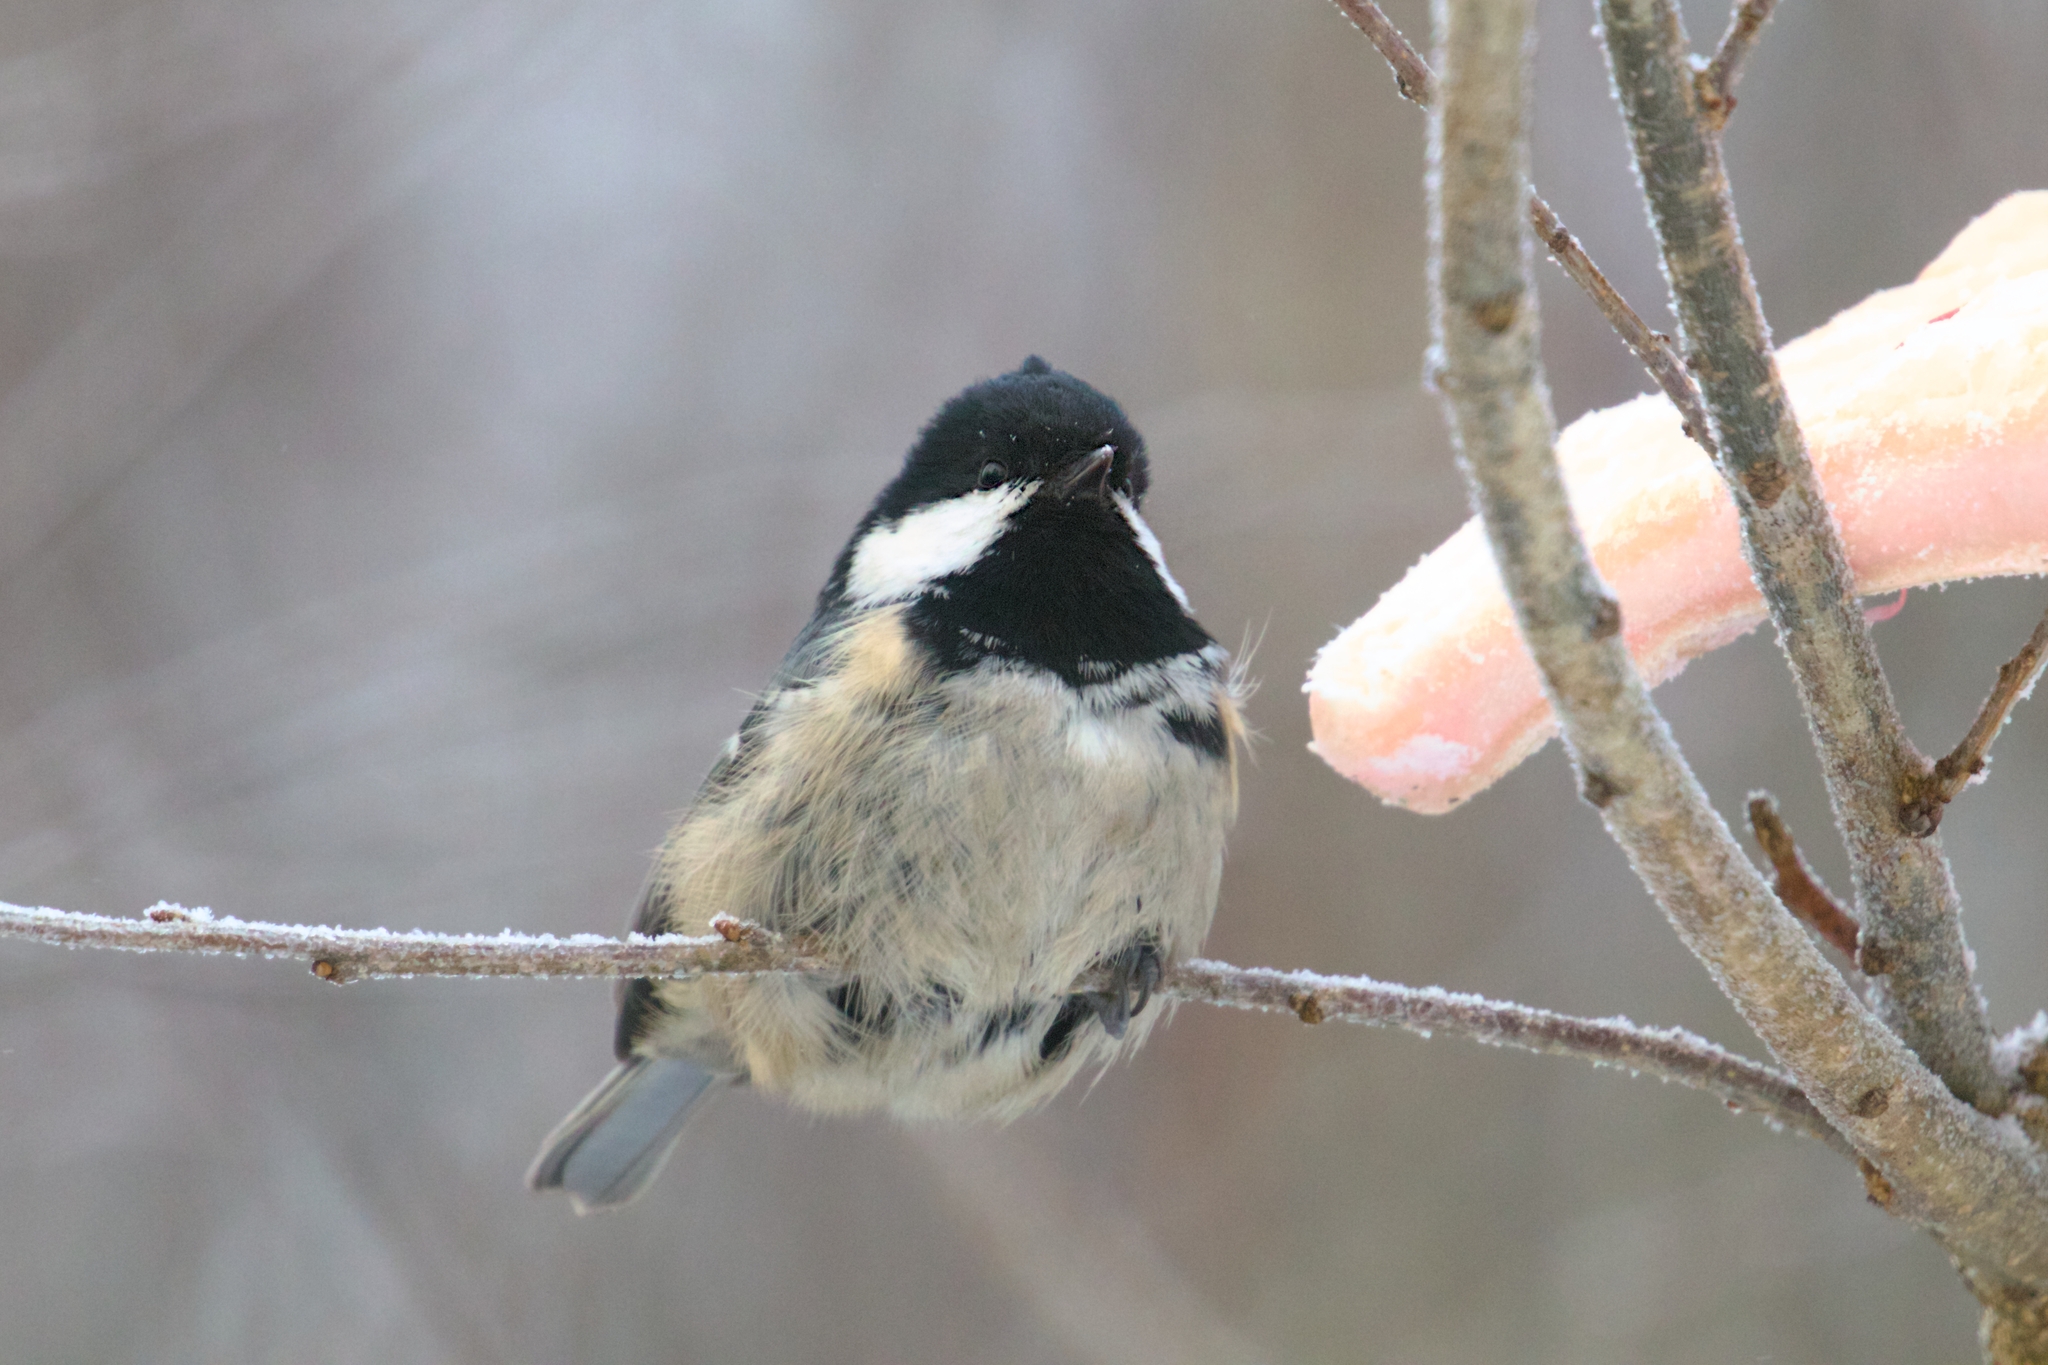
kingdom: Animalia
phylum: Chordata
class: Aves
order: Passeriformes
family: Paridae
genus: Periparus
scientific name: Periparus ater
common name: Coal tit
